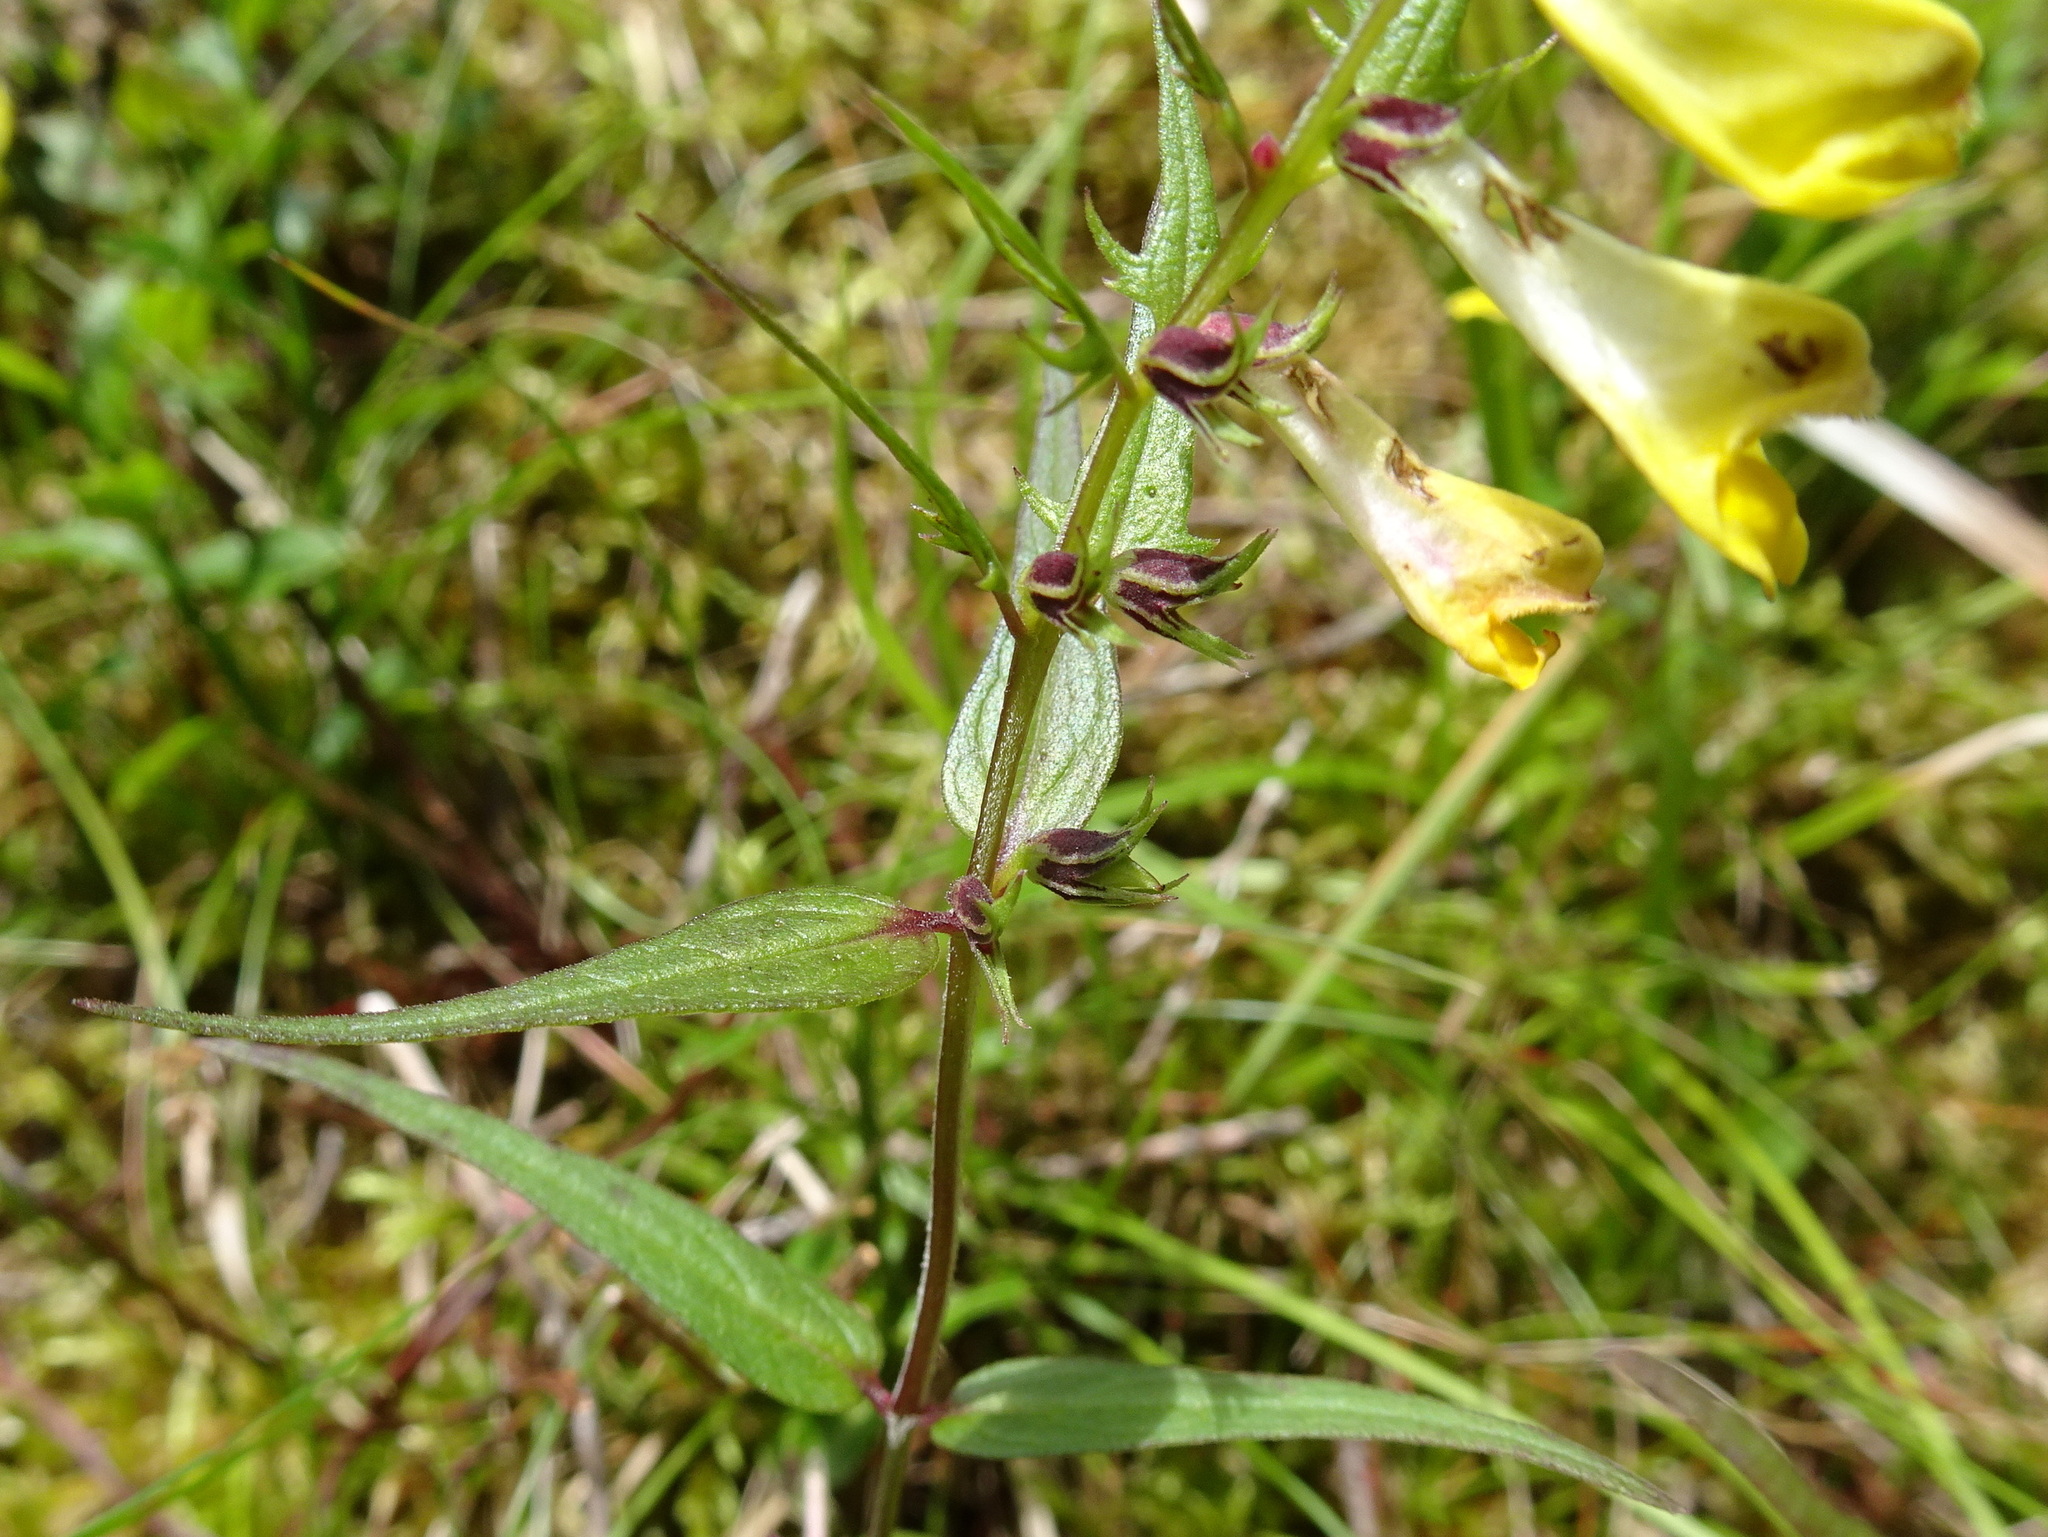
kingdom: Plantae
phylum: Tracheophyta
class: Magnoliopsida
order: Lamiales
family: Orobanchaceae
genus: Melampyrum
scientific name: Melampyrum pratense
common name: Common cow-wheat
